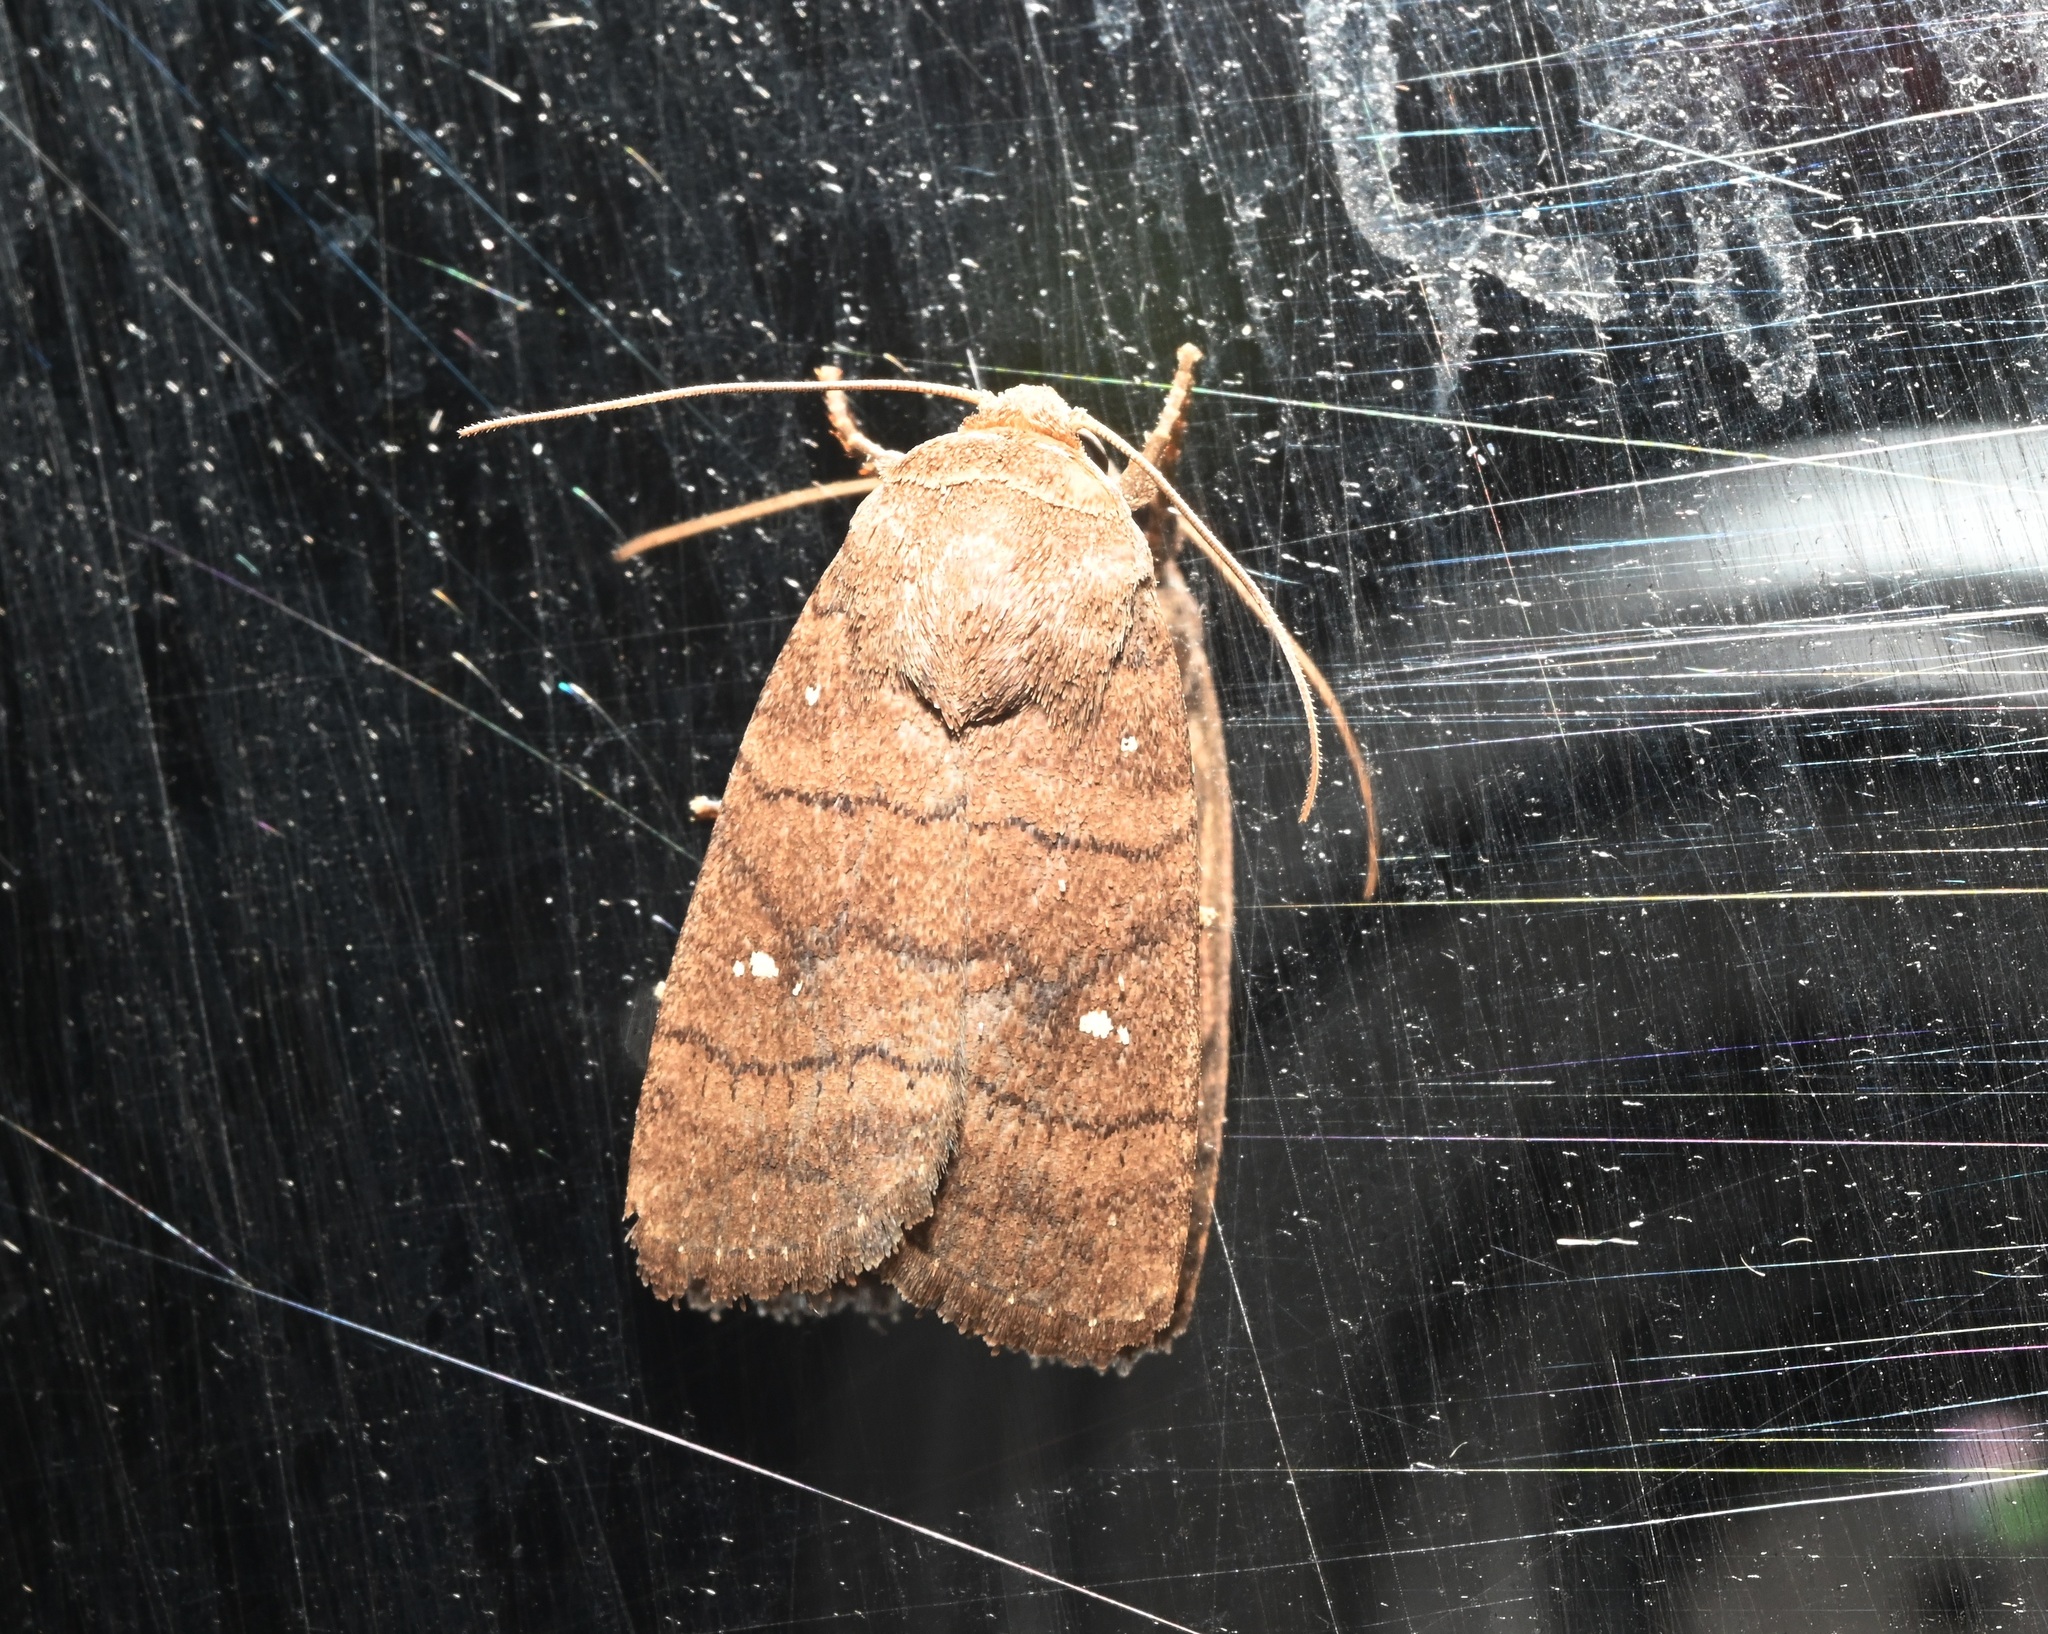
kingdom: Animalia
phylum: Arthropoda
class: Insecta
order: Lepidoptera
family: Noctuidae
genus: Athetis
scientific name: Athetis hongkongensis
